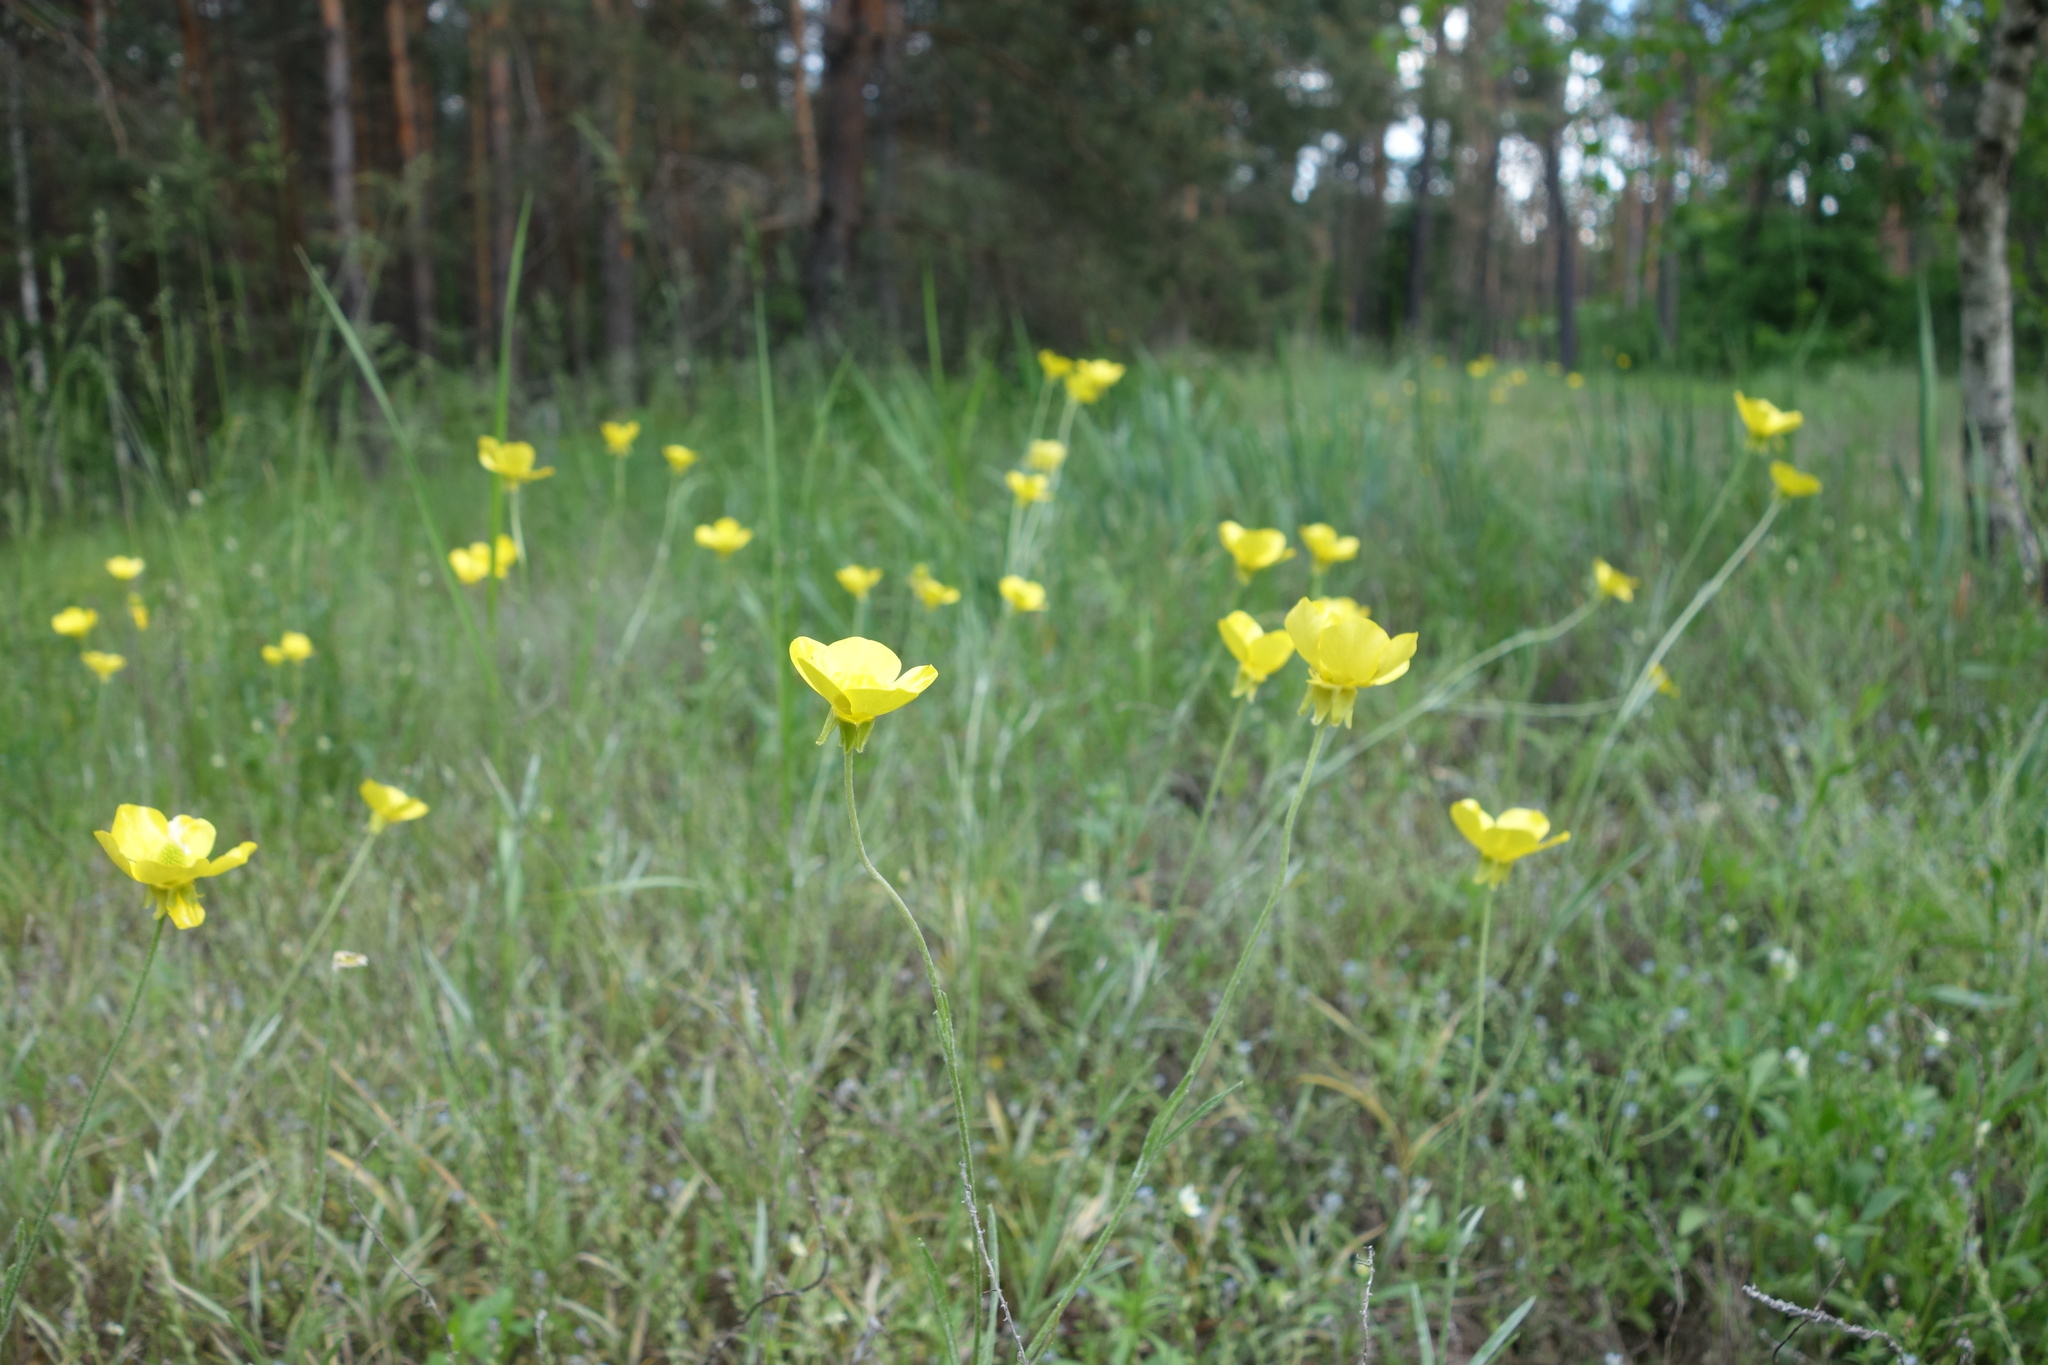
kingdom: Plantae
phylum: Tracheophyta
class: Magnoliopsida
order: Ranunculales
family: Ranunculaceae
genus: Ranunculus
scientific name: Ranunculus illyricus
